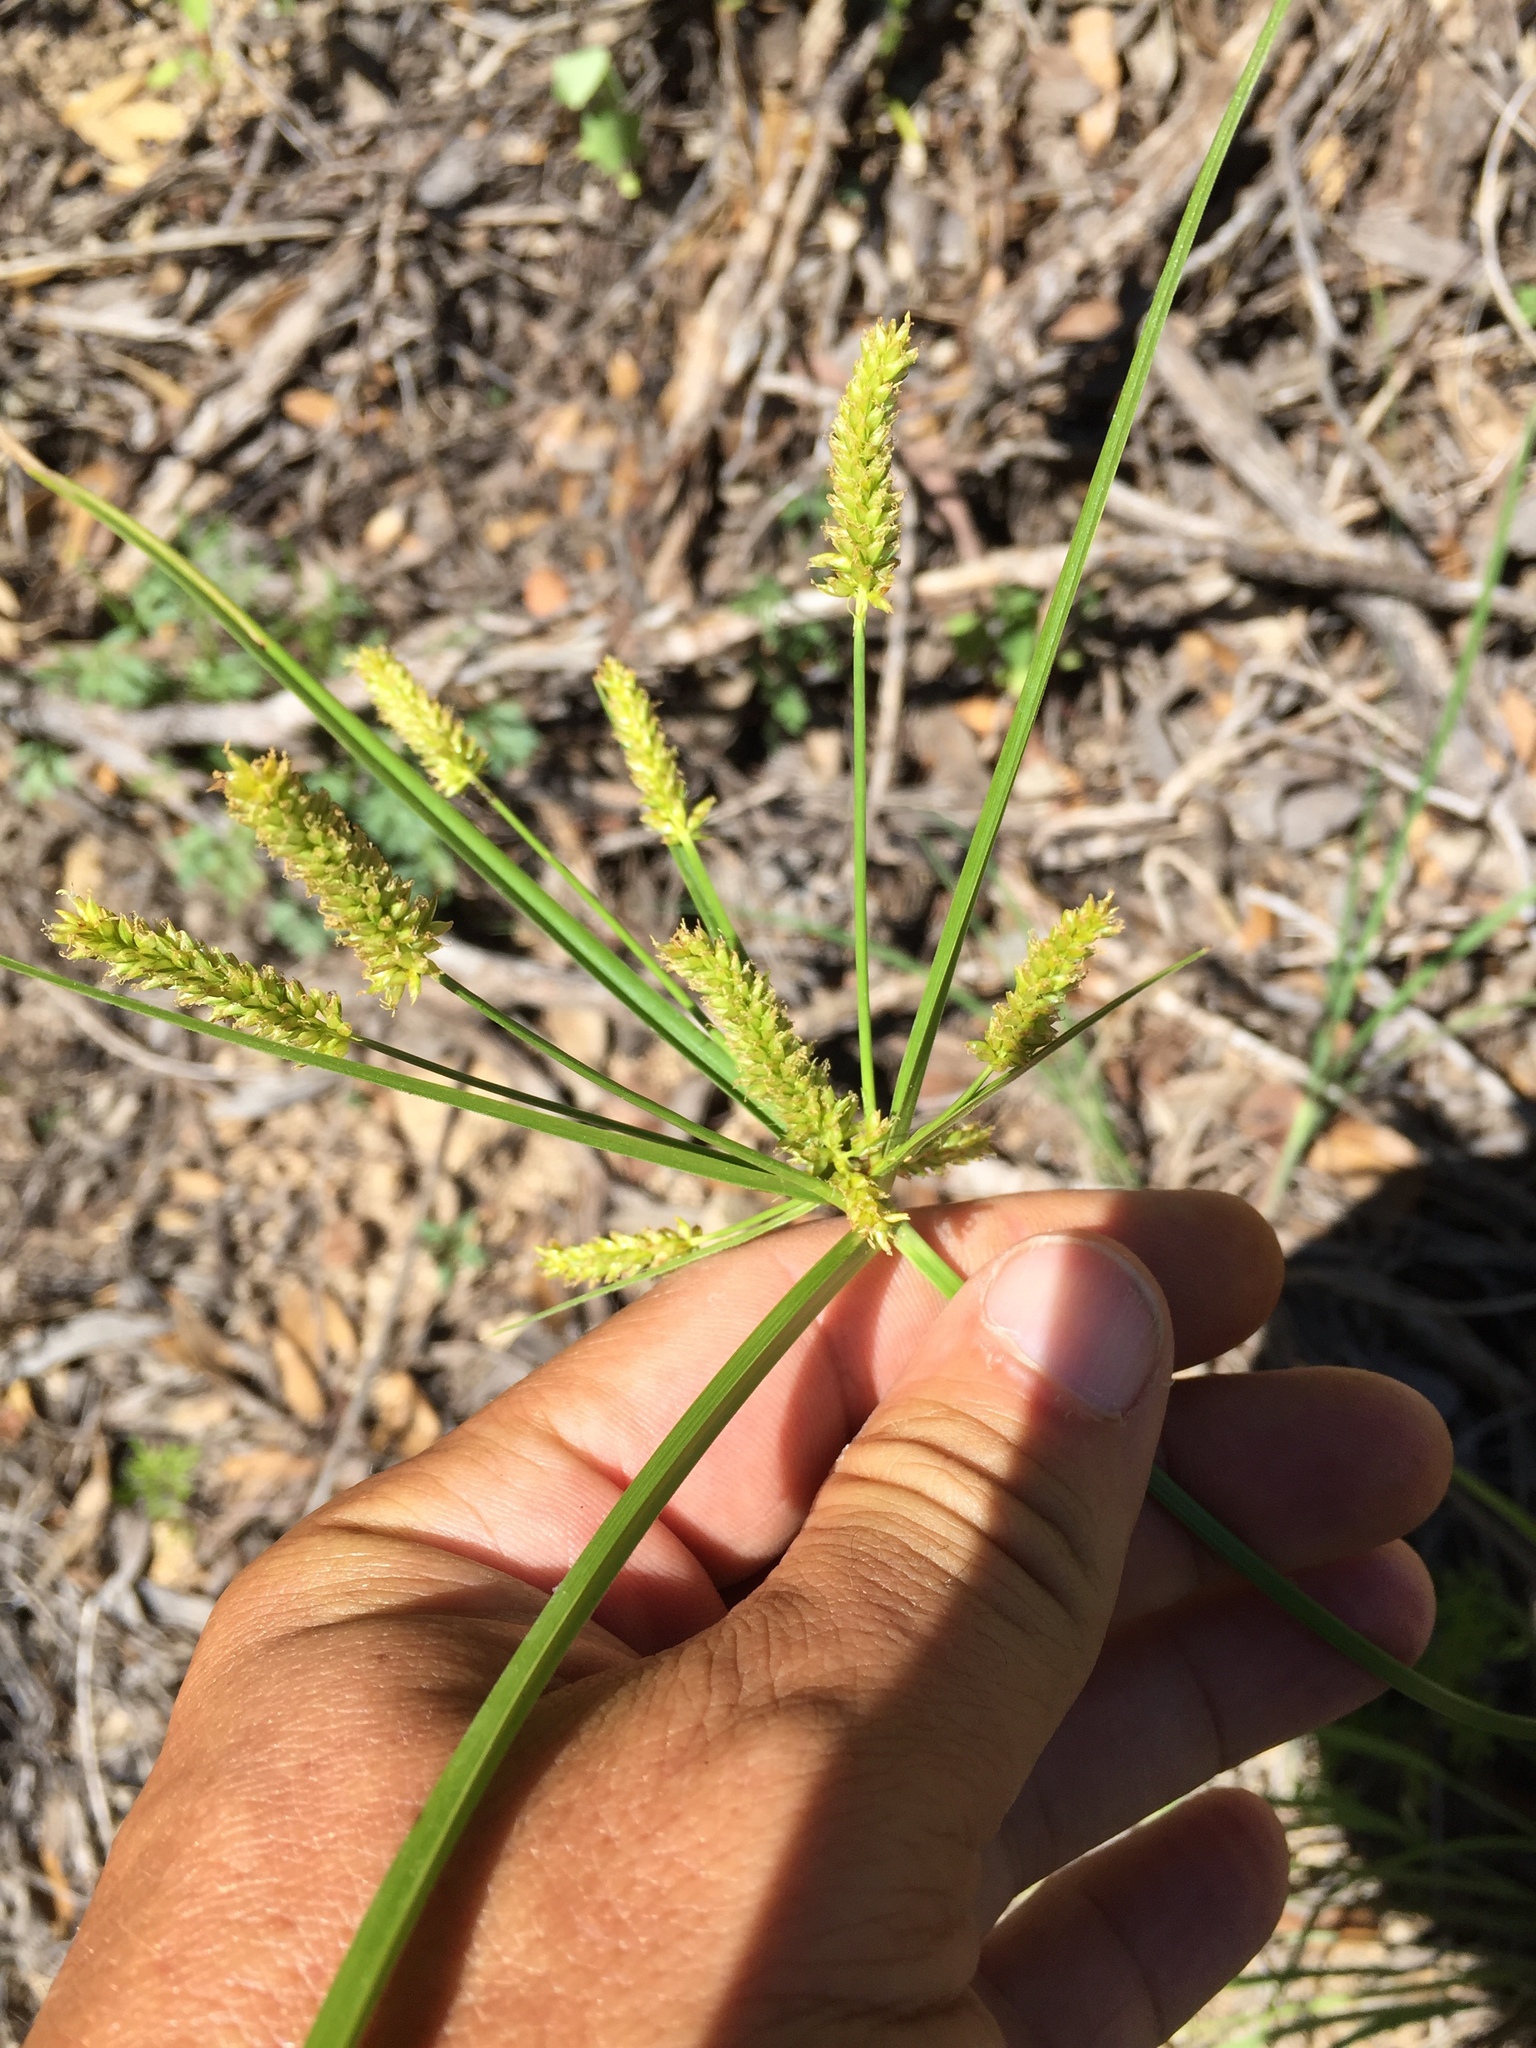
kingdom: Plantae
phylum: Tracheophyta
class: Liliopsida
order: Poales
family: Cyperaceae
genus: Cyperus
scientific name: Cyperus mutisii
